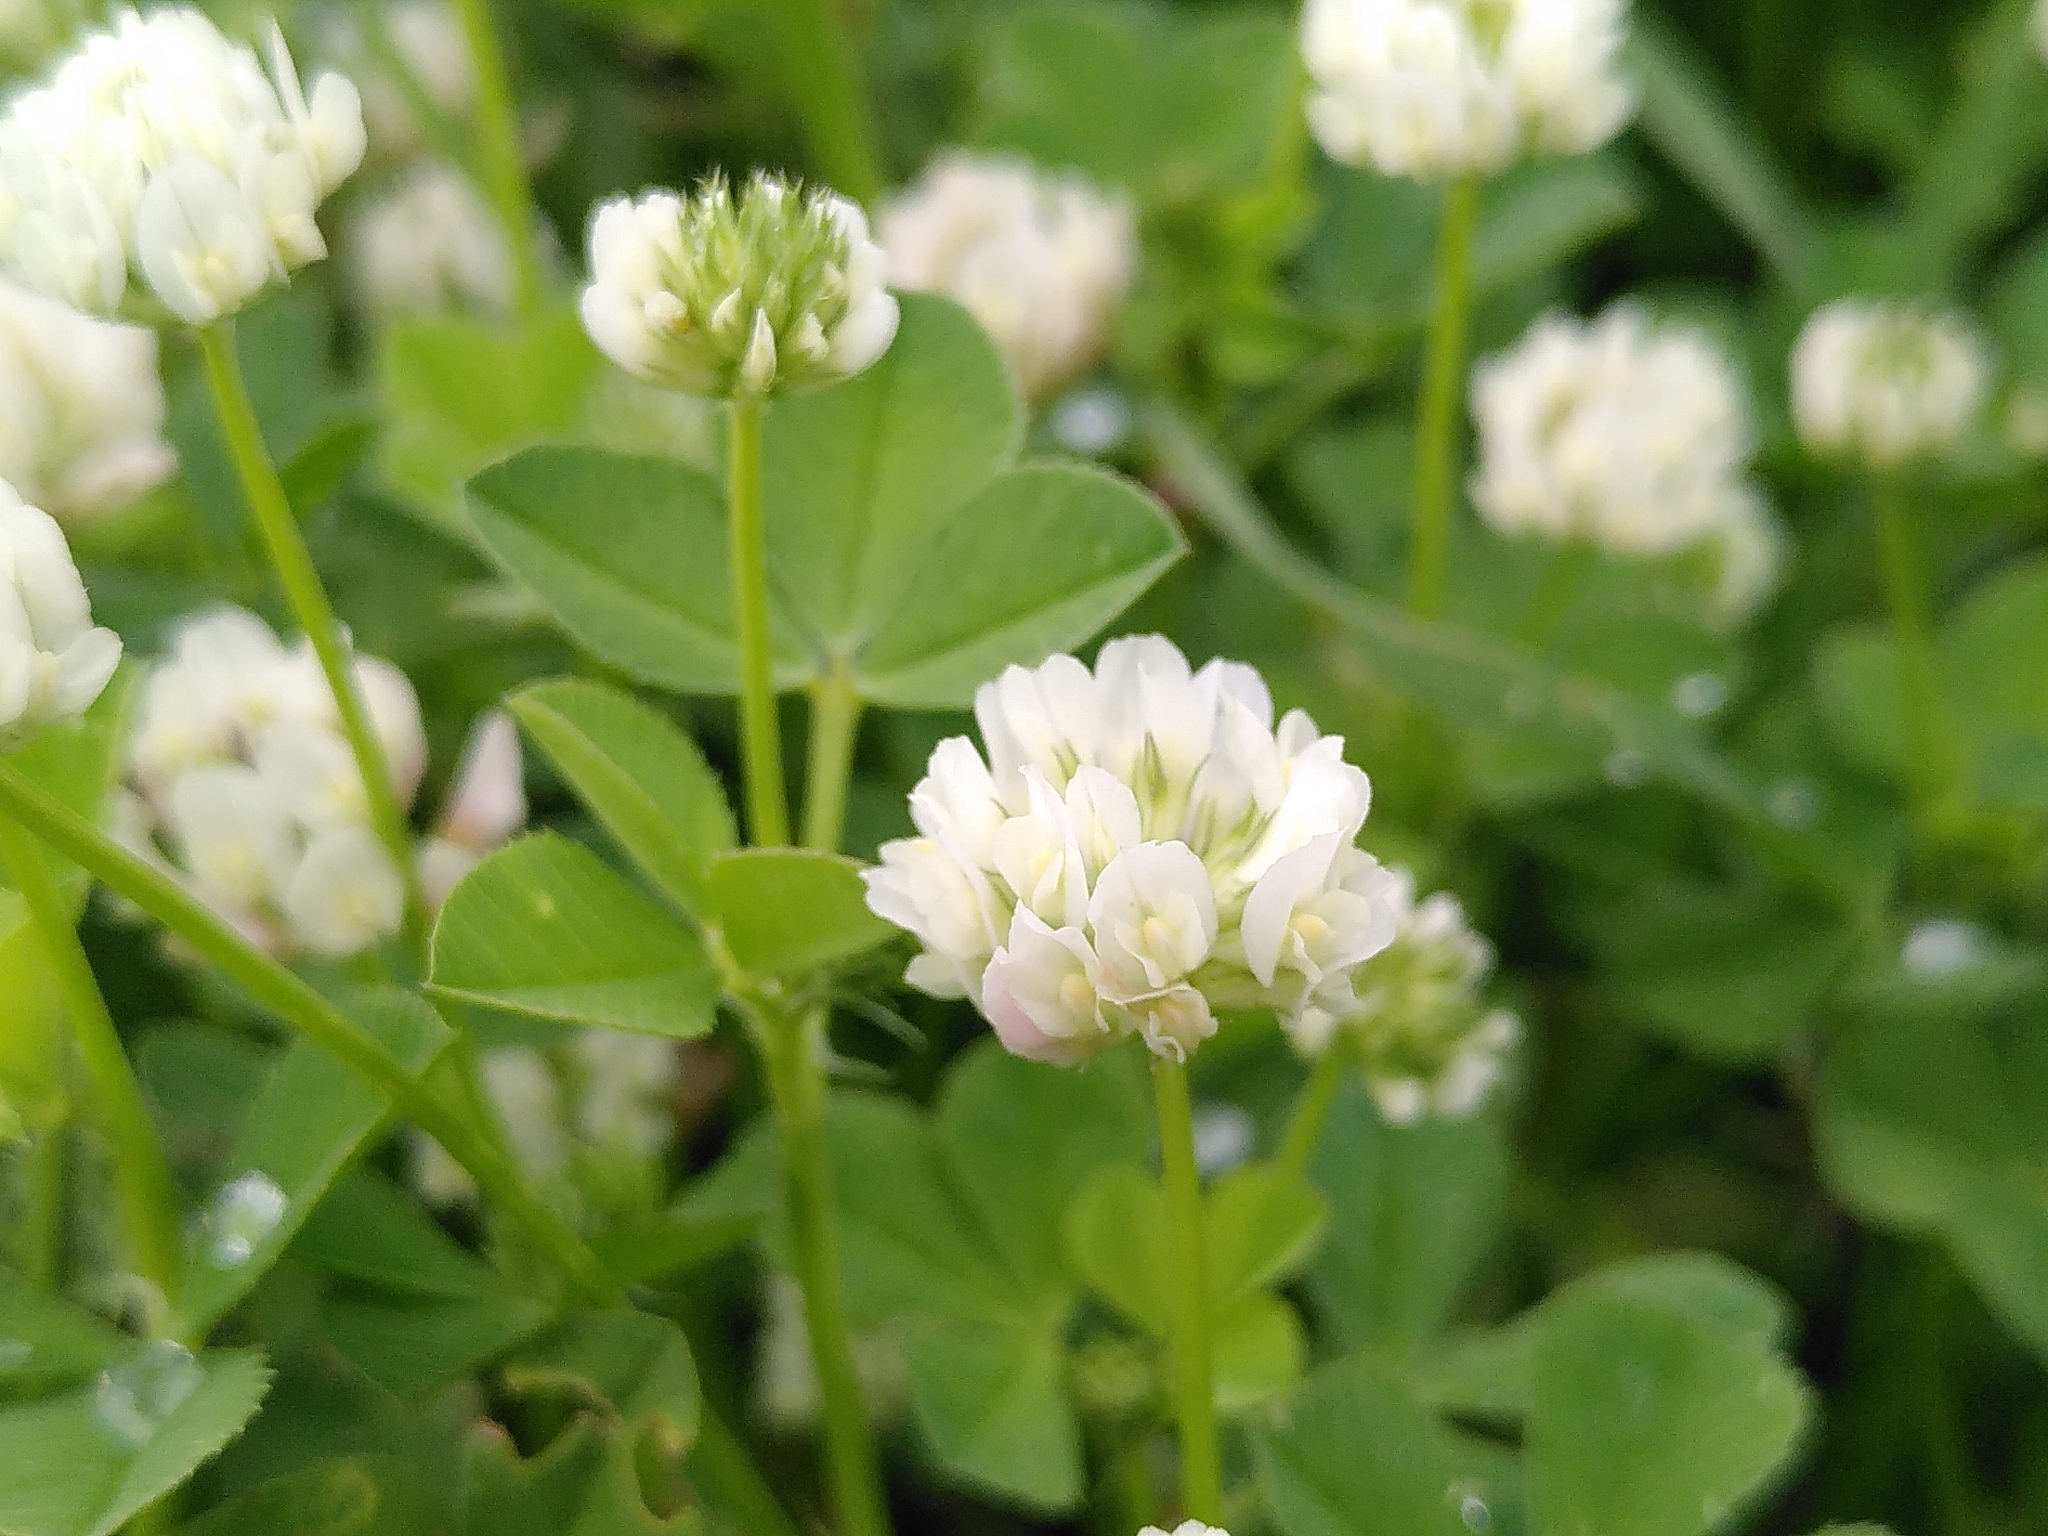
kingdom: Plantae
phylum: Tracheophyta
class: Magnoliopsida
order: Fabales
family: Fabaceae
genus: Trifolium
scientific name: Trifolium nigrescens
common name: Small white clover
